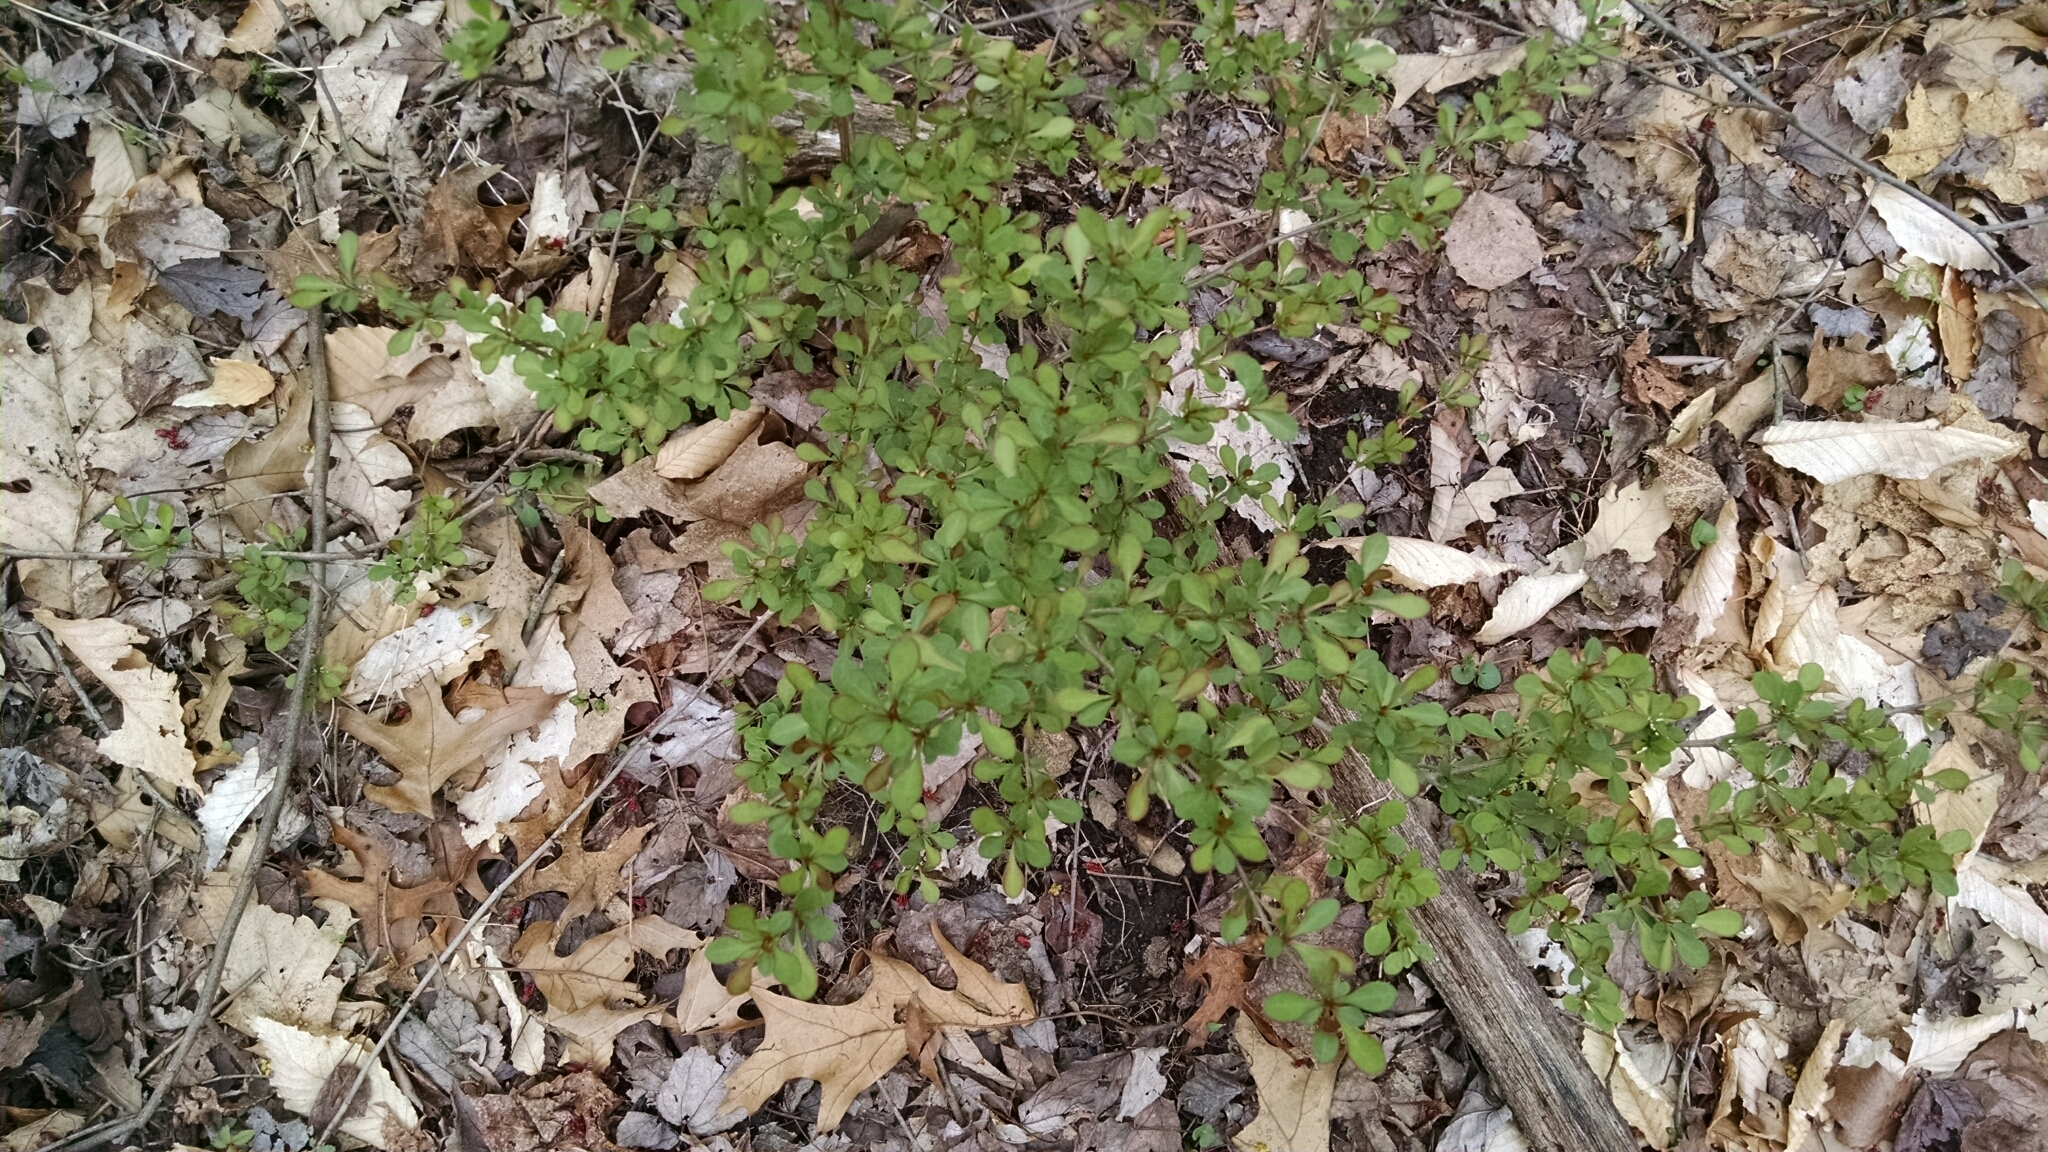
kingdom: Plantae
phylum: Tracheophyta
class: Magnoliopsida
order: Ranunculales
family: Berberidaceae
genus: Berberis
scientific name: Berberis thunbergii
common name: Japanese barberry
